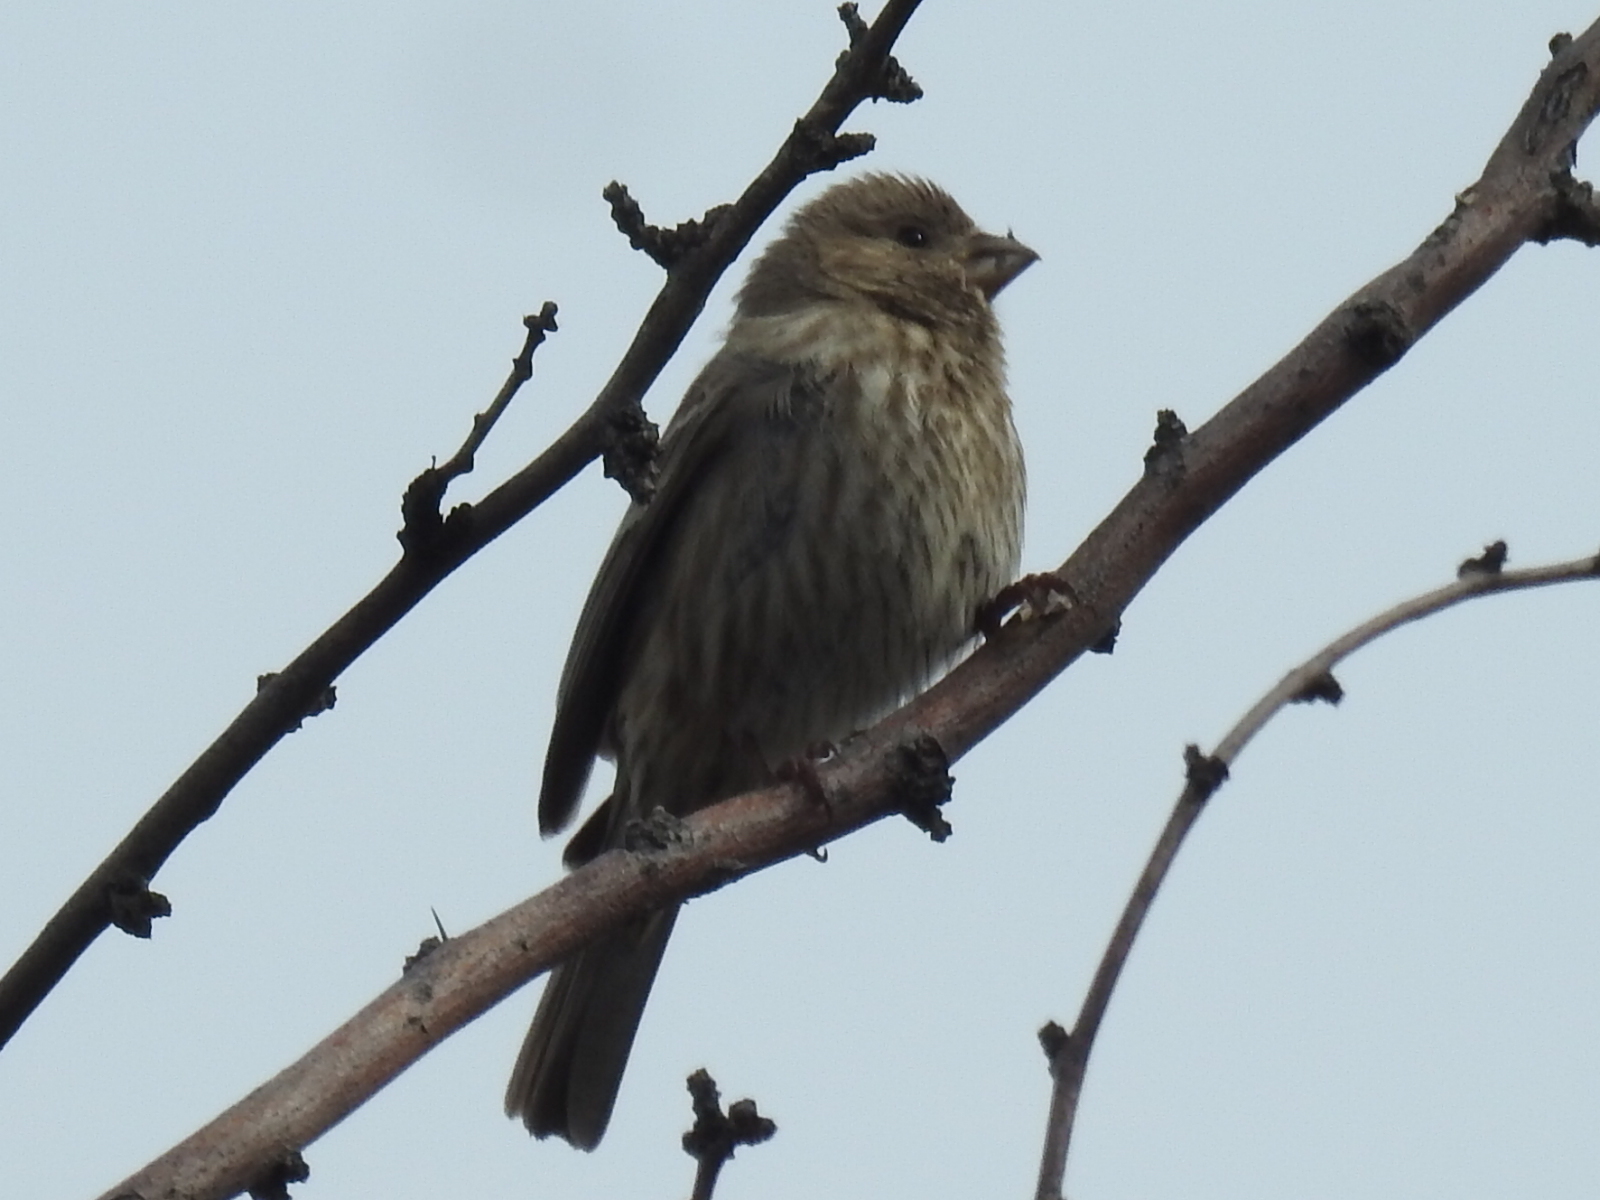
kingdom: Animalia
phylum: Chordata
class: Aves
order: Passeriformes
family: Fringillidae
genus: Haemorhous
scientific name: Haemorhous mexicanus
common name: House finch
